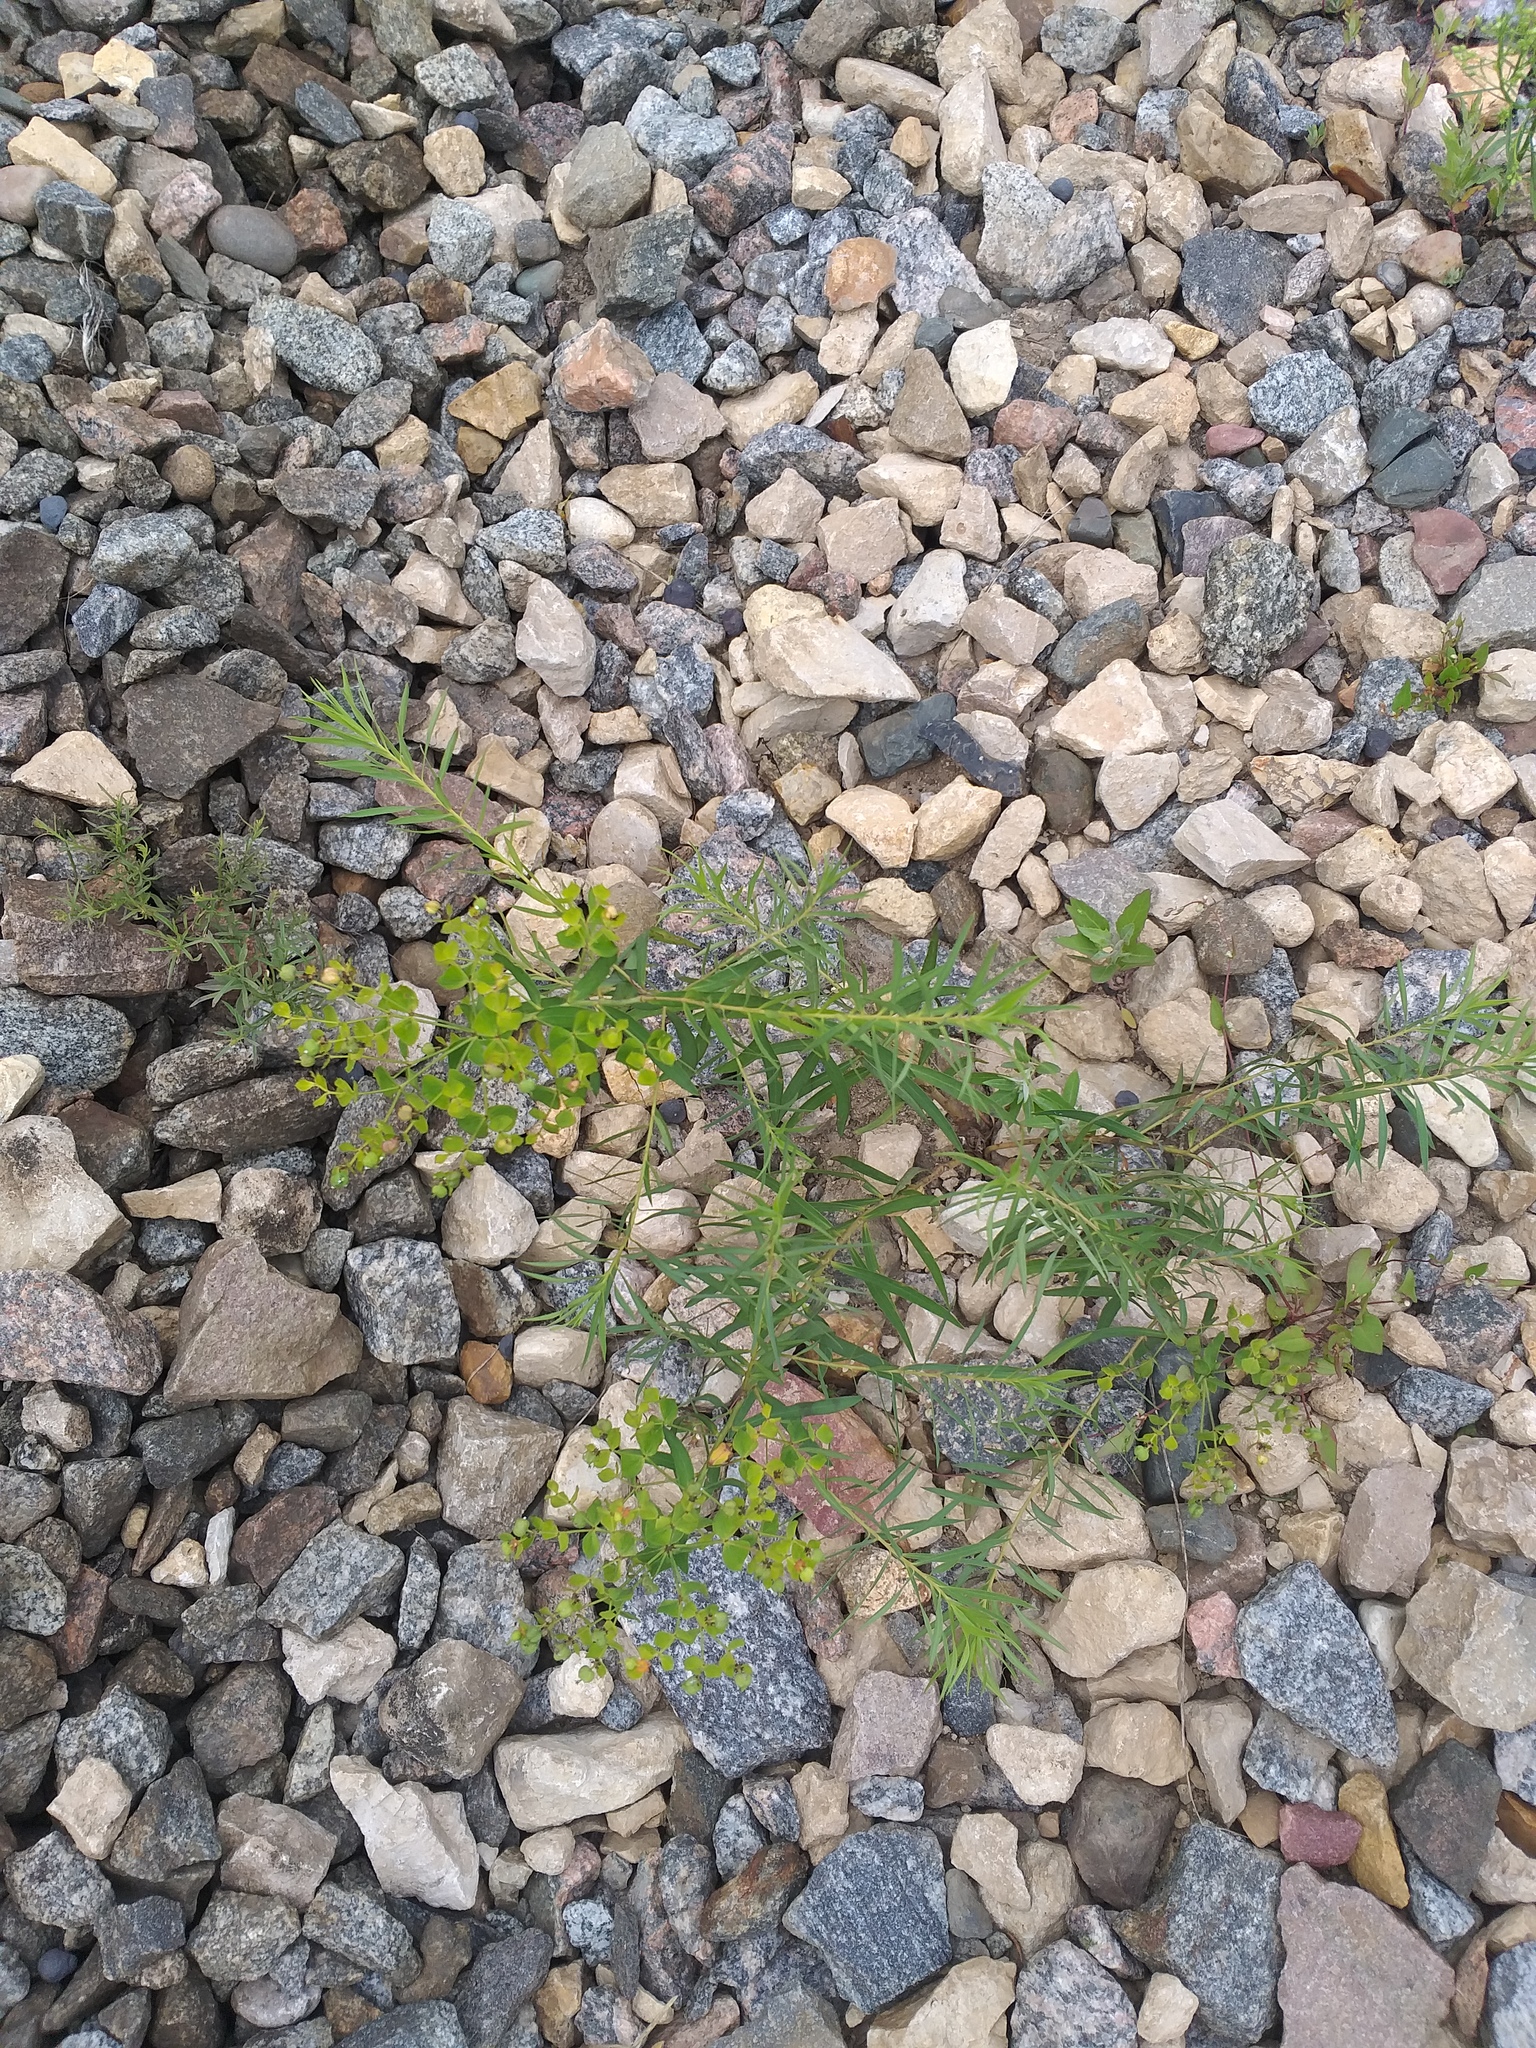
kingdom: Plantae
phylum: Tracheophyta
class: Magnoliopsida
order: Malpighiales
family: Euphorbiaceae
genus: Euphorbia
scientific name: Euphorbia virgata
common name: Leafy spurge
